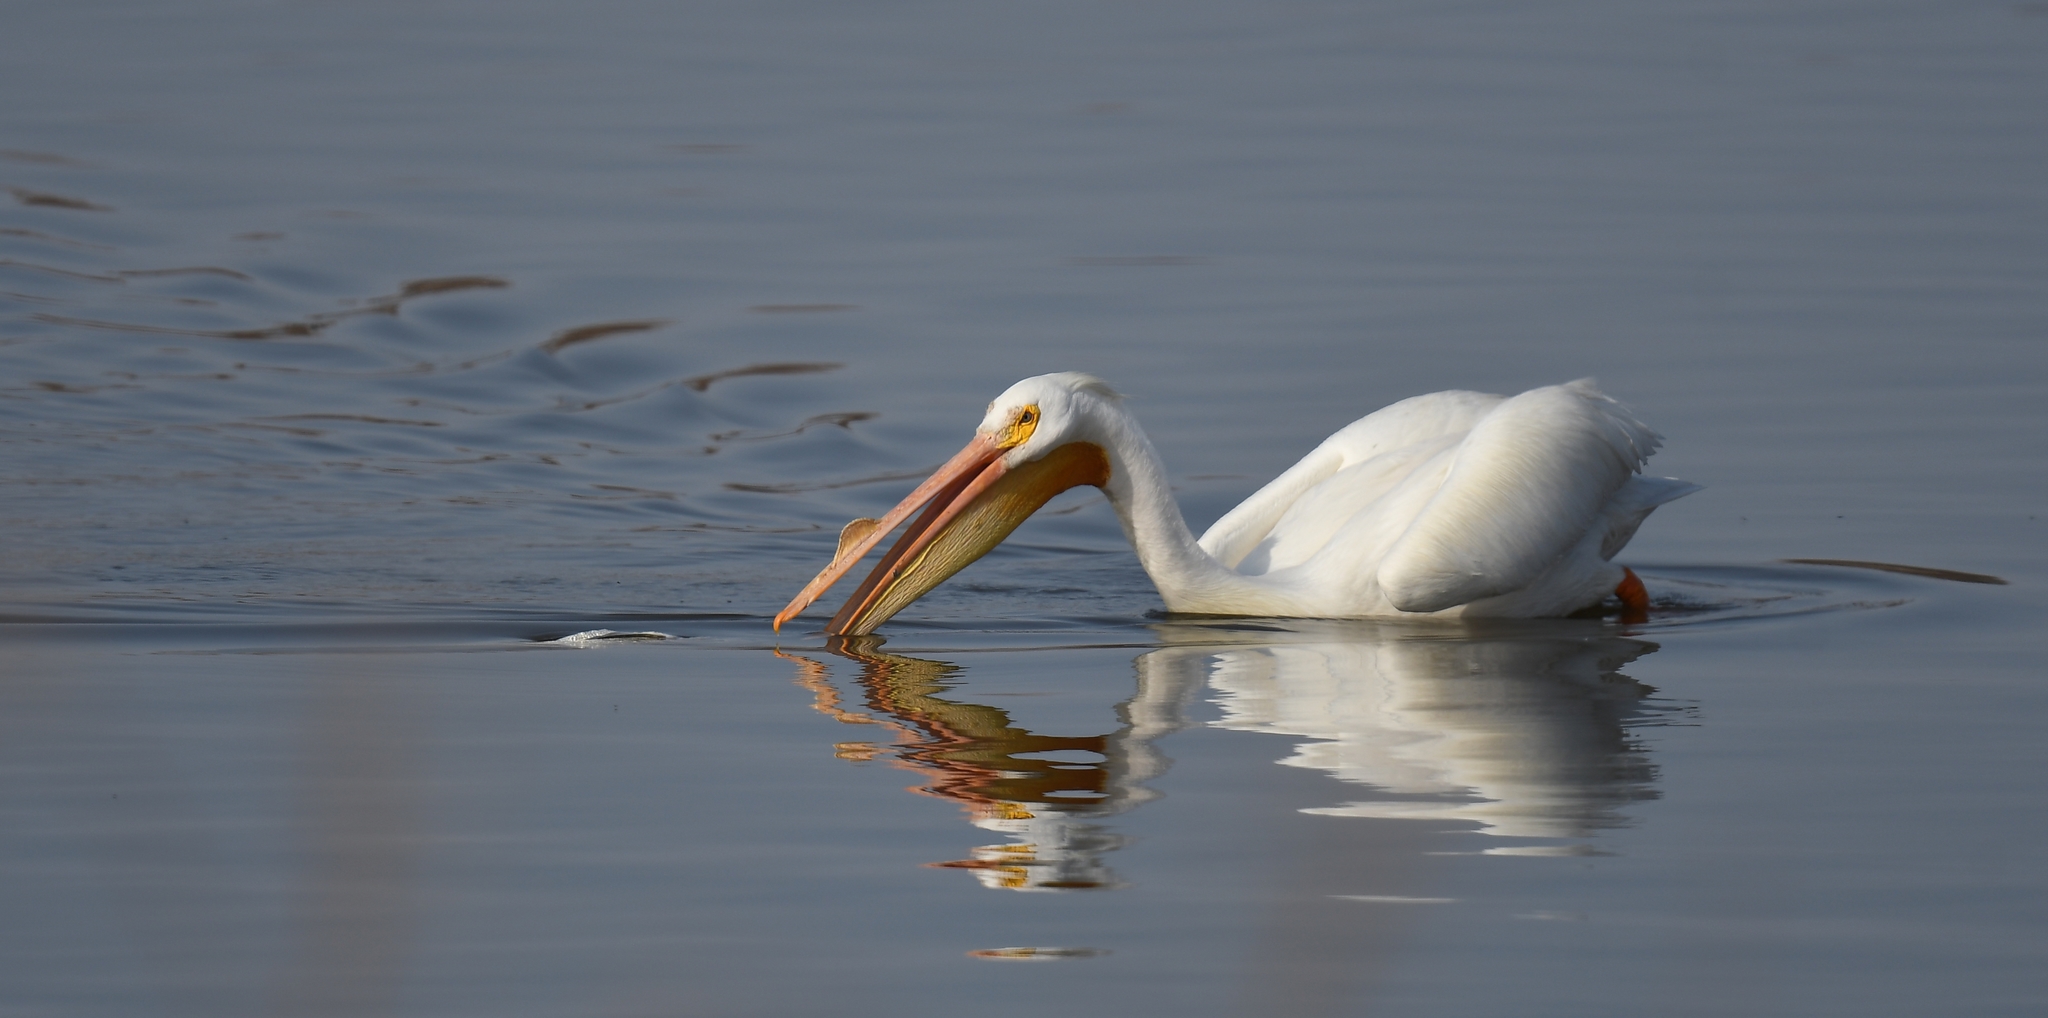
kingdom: Animalia
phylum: Chordata
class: Aves
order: Pelecaniformes
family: Pelecanidae
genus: Pelecanus
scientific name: Pelecanus erythrorhynchos
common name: American white pelican
